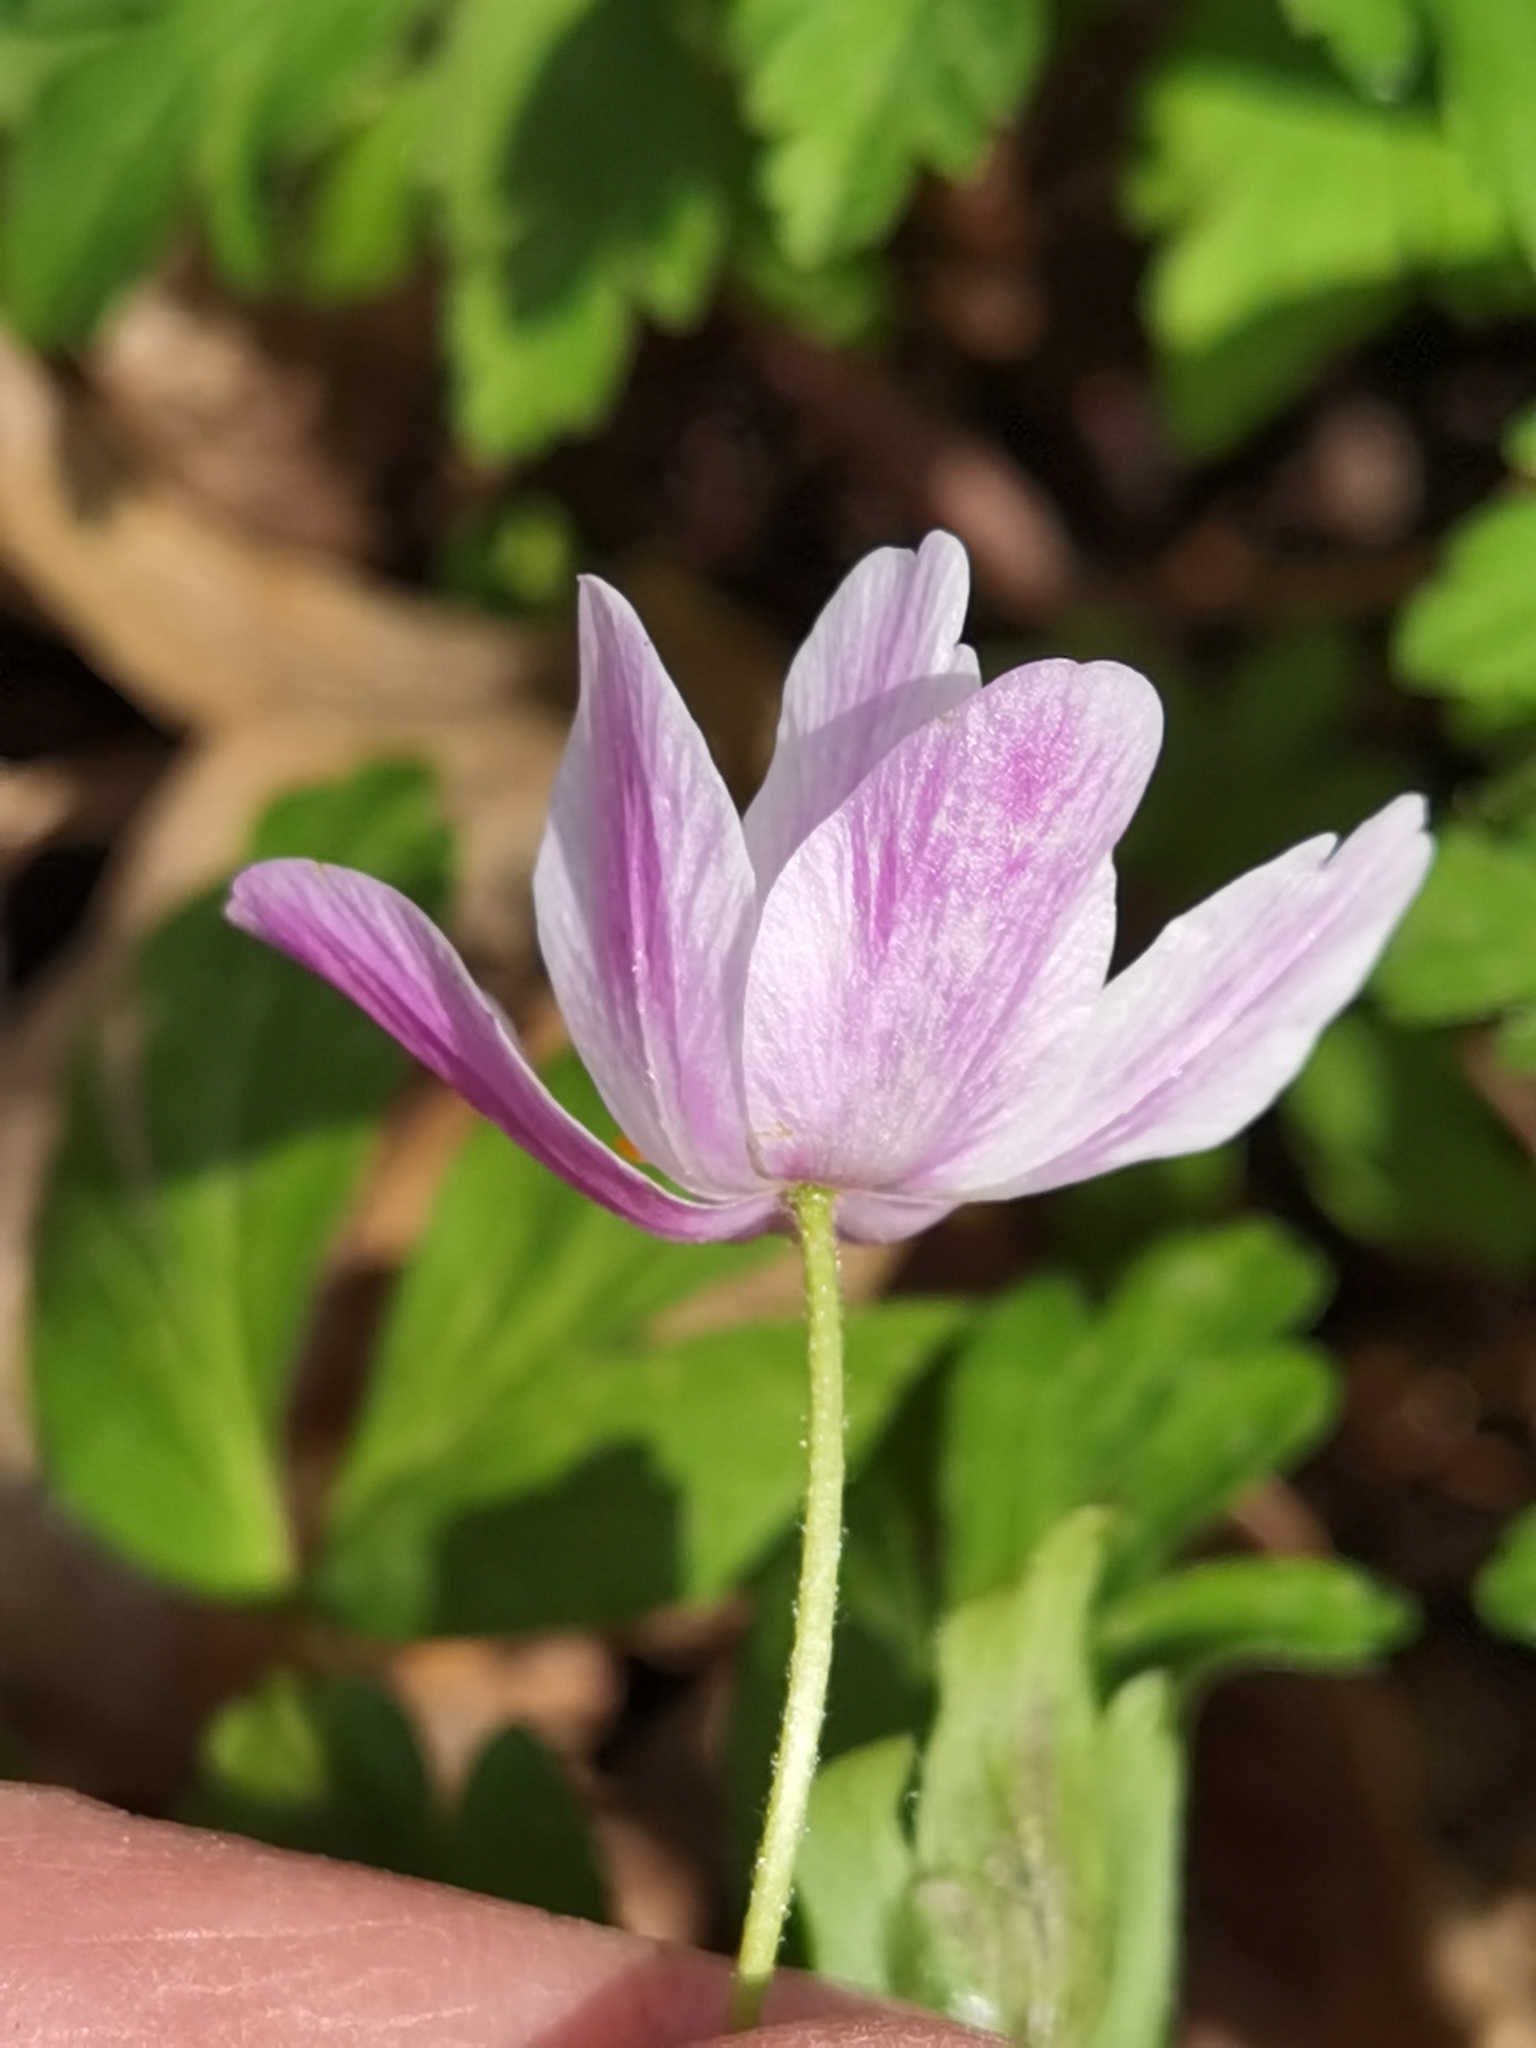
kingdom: Plantae
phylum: Tracheophyta
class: Magnoliopsida
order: Ranunculales
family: Ranunculaceae
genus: Anemone
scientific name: Anemone nemorosa
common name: Wood anemone
